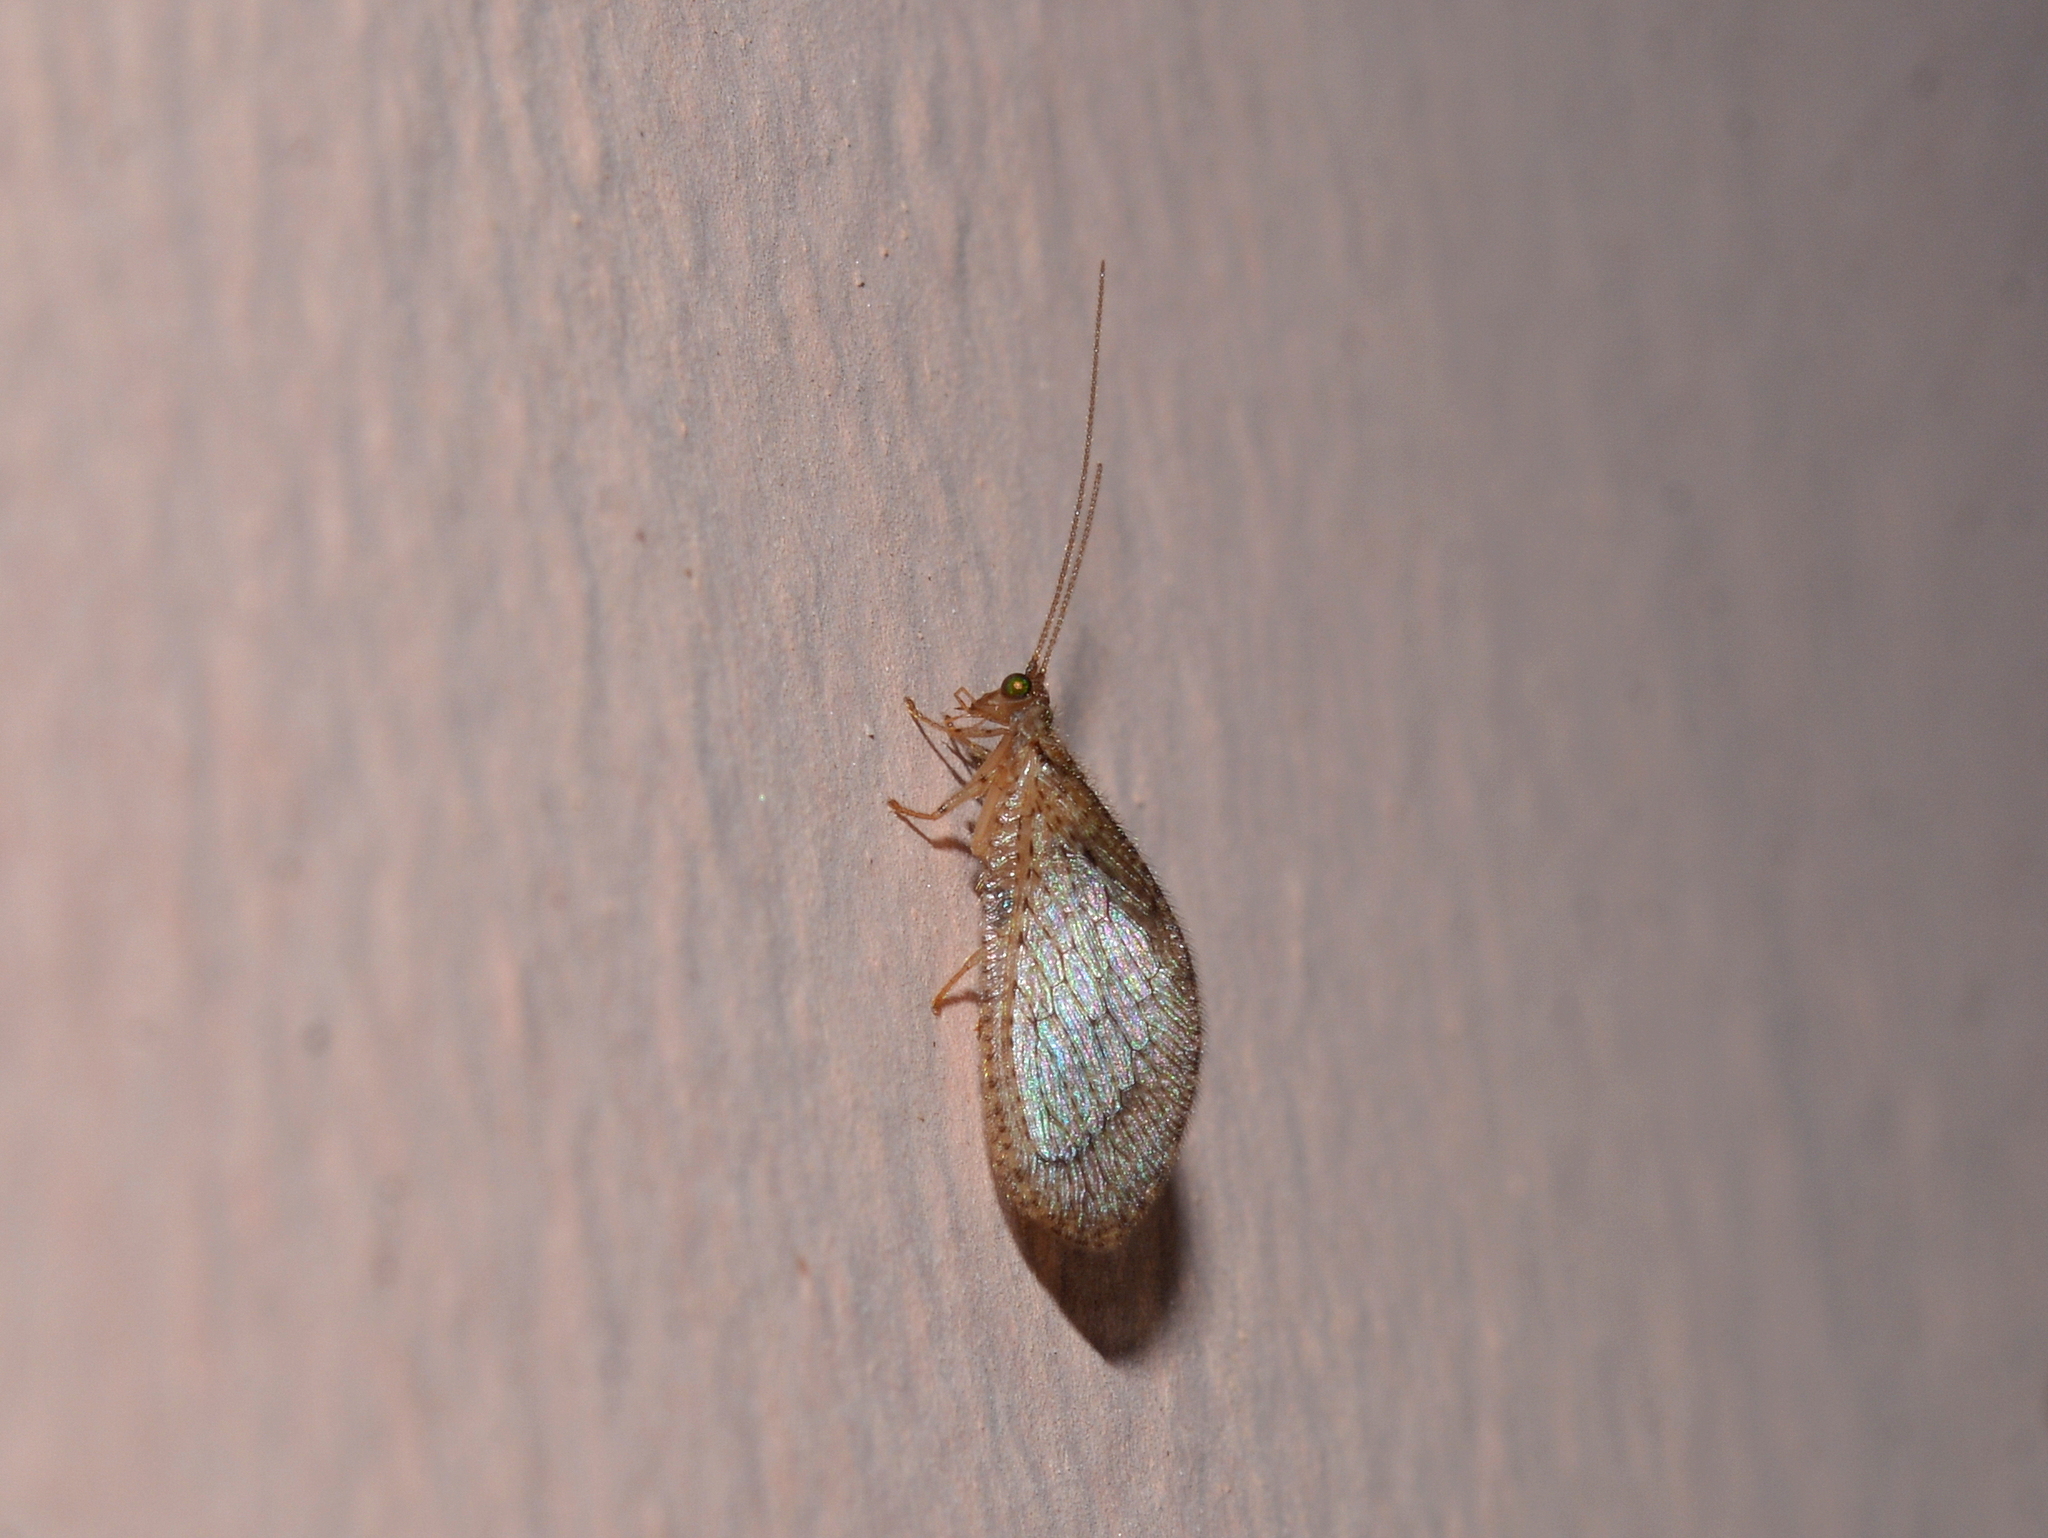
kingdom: Animalia
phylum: Arthropoda
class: Insecta
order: Neuroptera
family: Hemerobiidae
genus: Nusalala
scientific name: Nusalala tessellata
